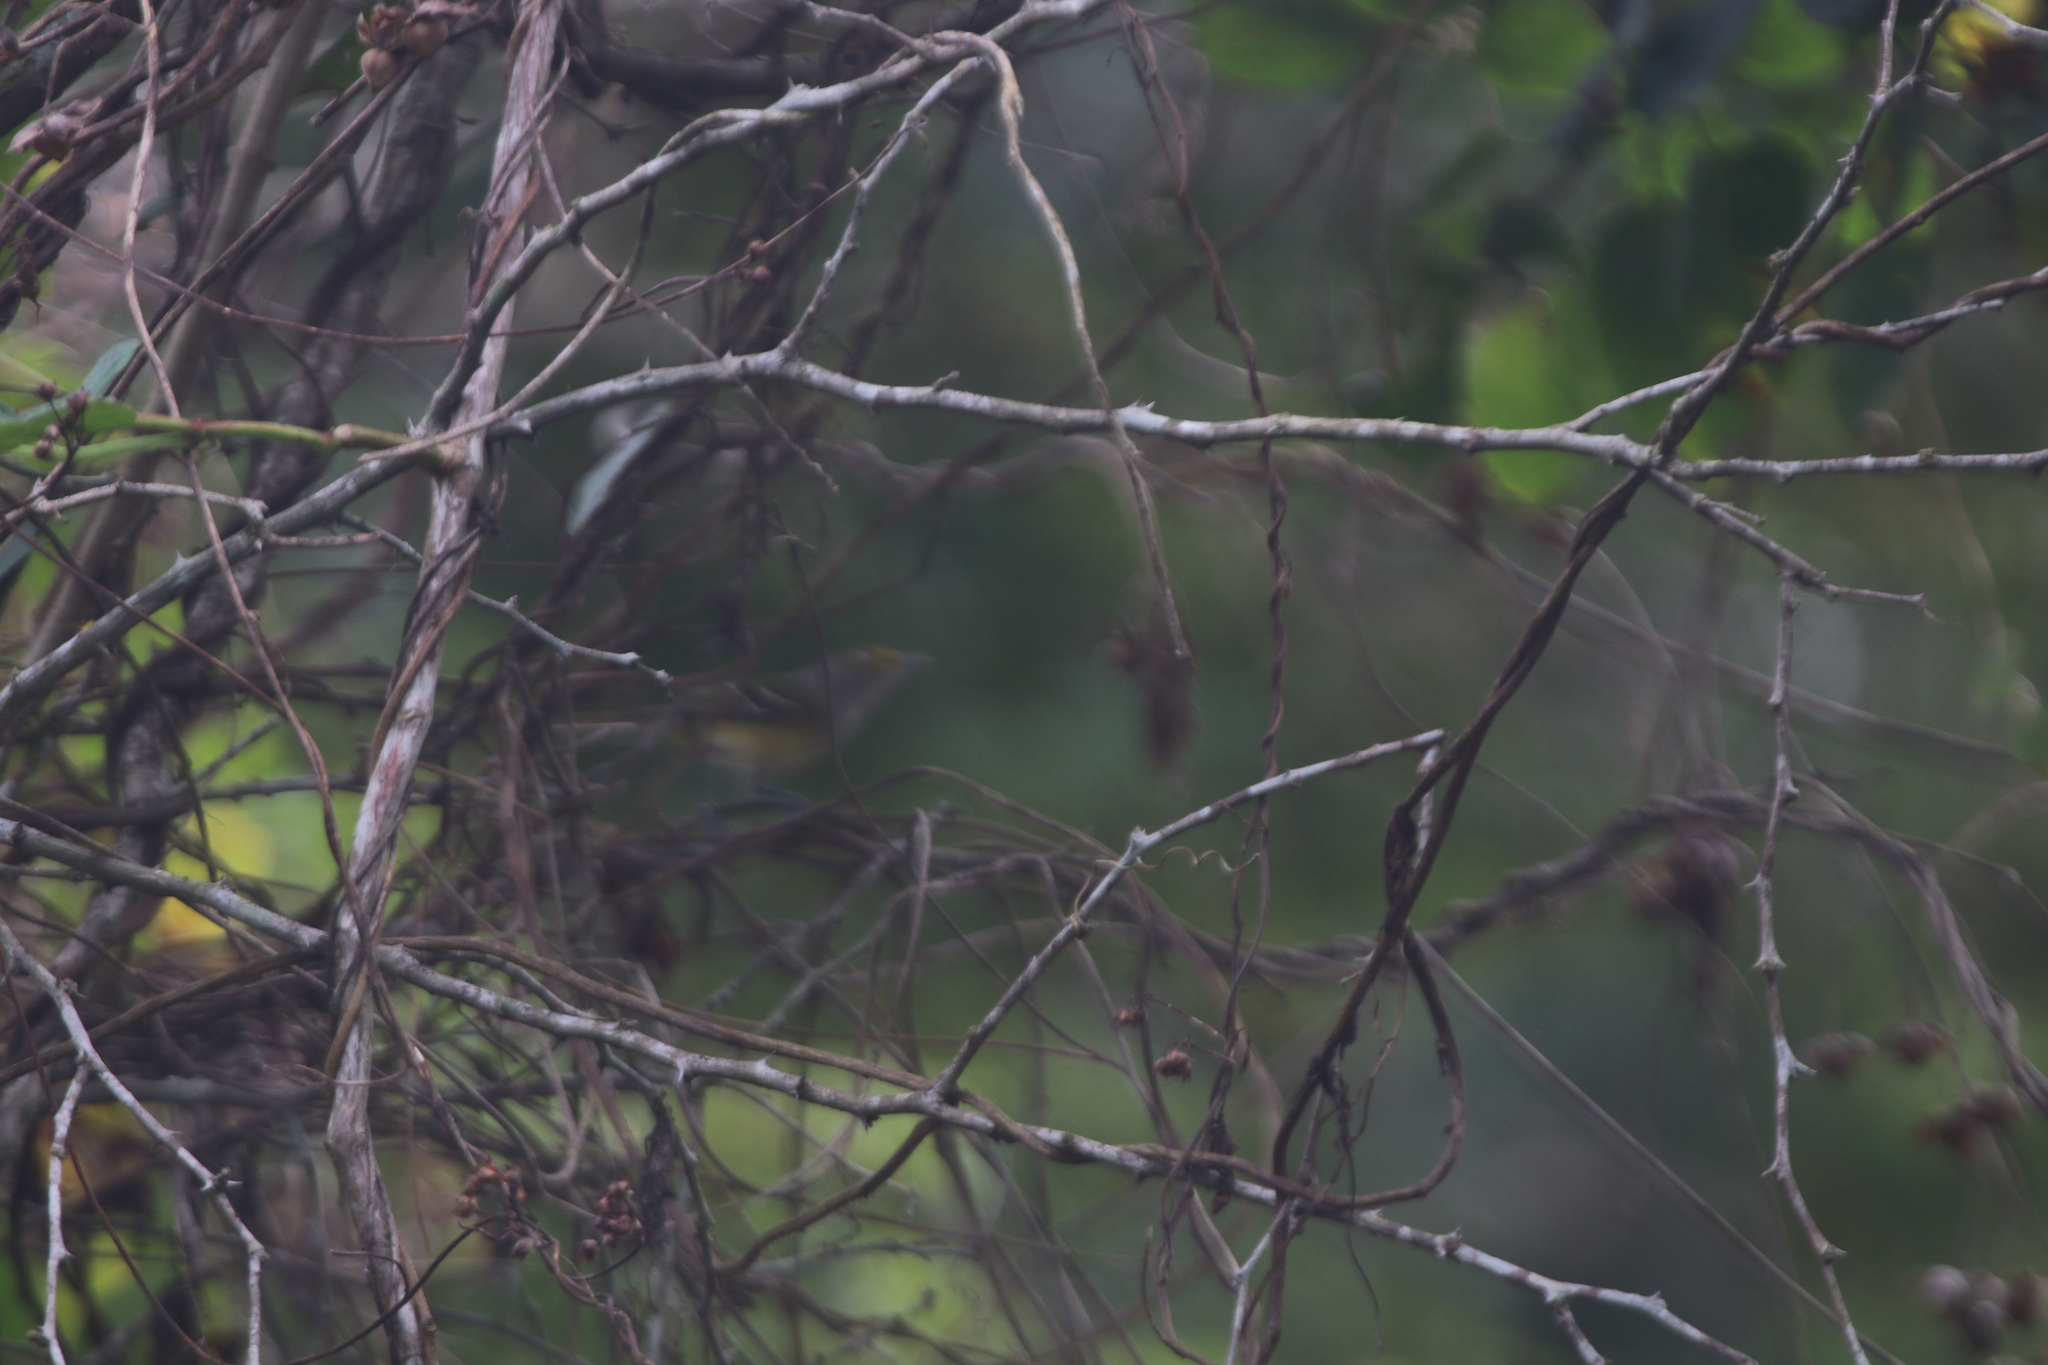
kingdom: Animalia
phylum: Chordata
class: Aves
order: Passeriformes
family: Vireonidae
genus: Vireo
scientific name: Vireo griseus
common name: White-eyed vireo
